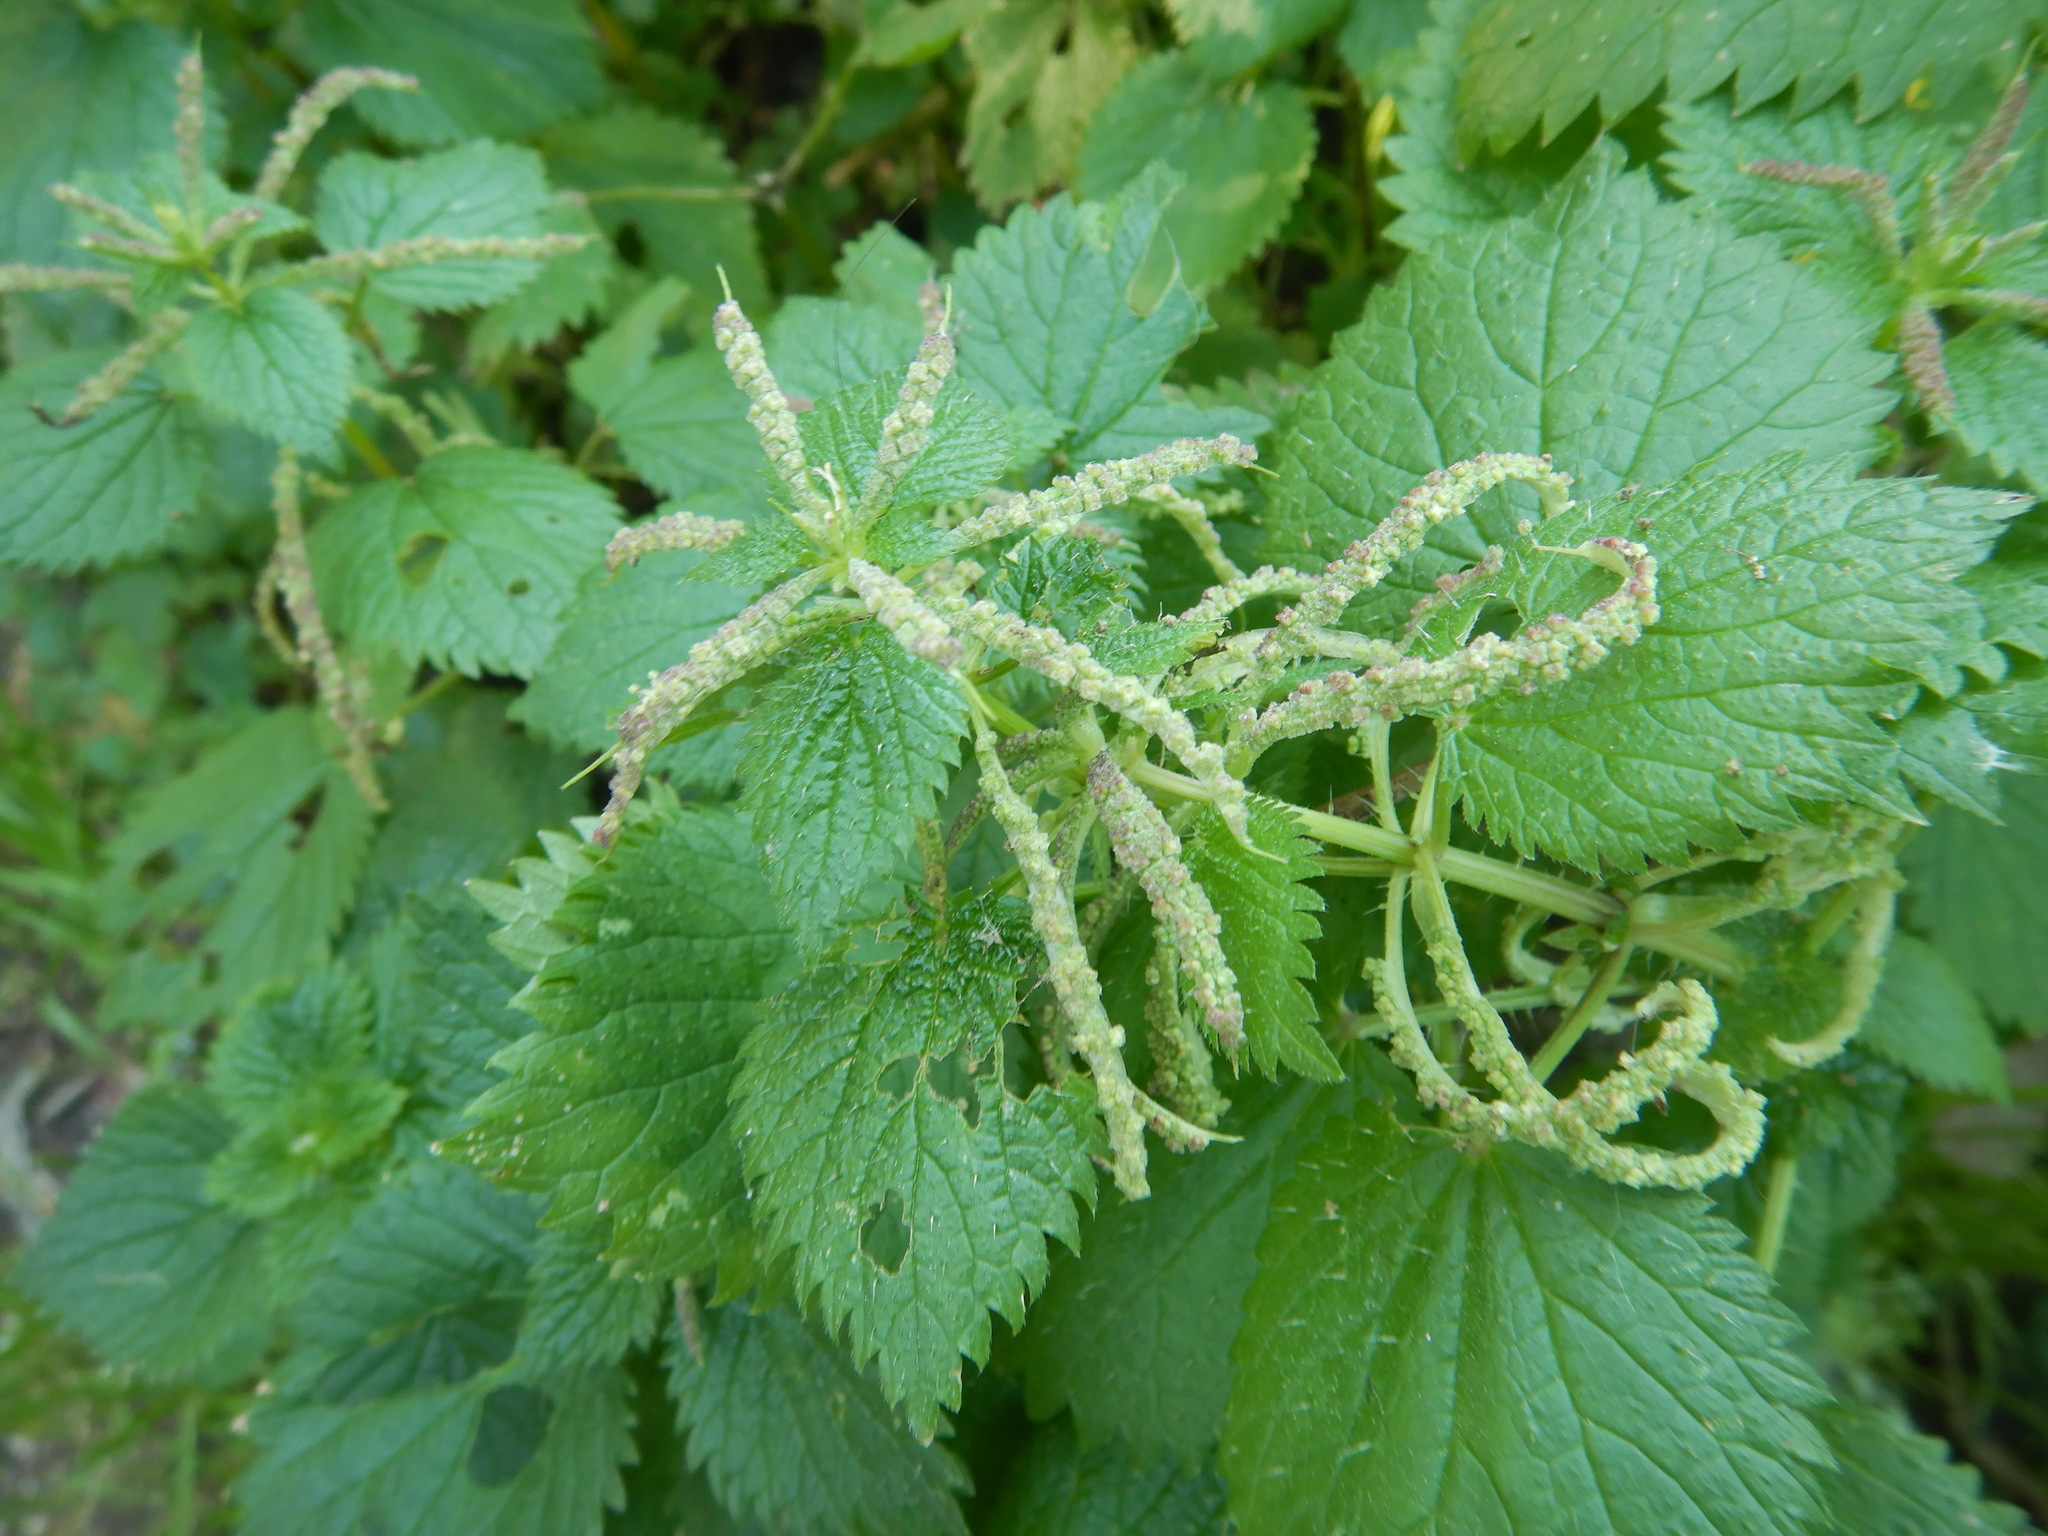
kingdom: Plantae
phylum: Tracheophyta
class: Magnoliopsida
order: Rosales
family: Urticaceae
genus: Urtica
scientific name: Urtica membranacea
